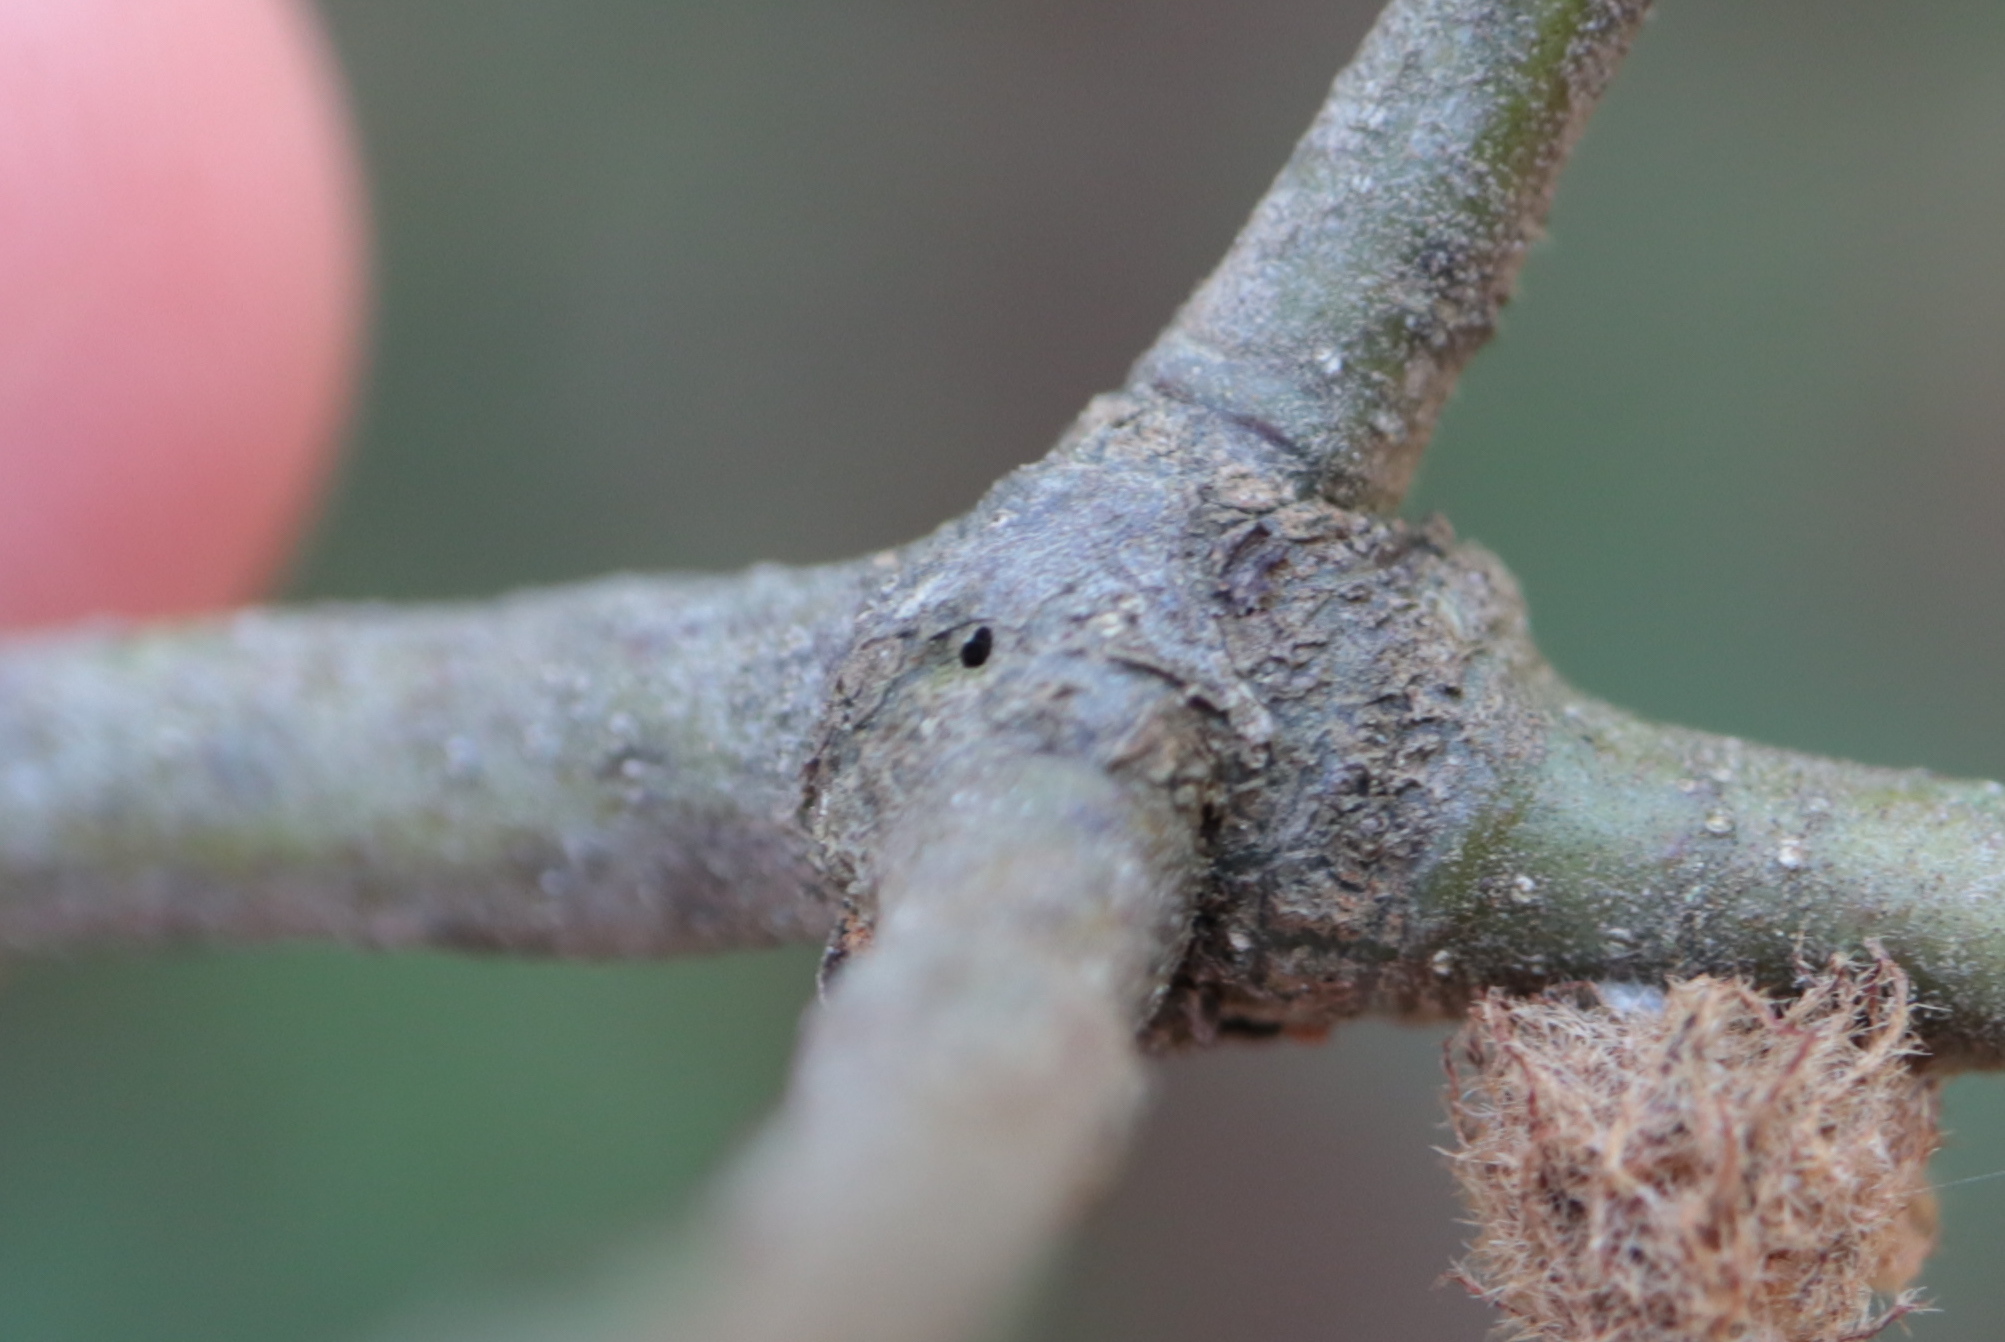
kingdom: Animalia
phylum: Arthropoda
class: Insecta
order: Hymenoptera
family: Cynipidae
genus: Zapatella
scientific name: Zapatella
